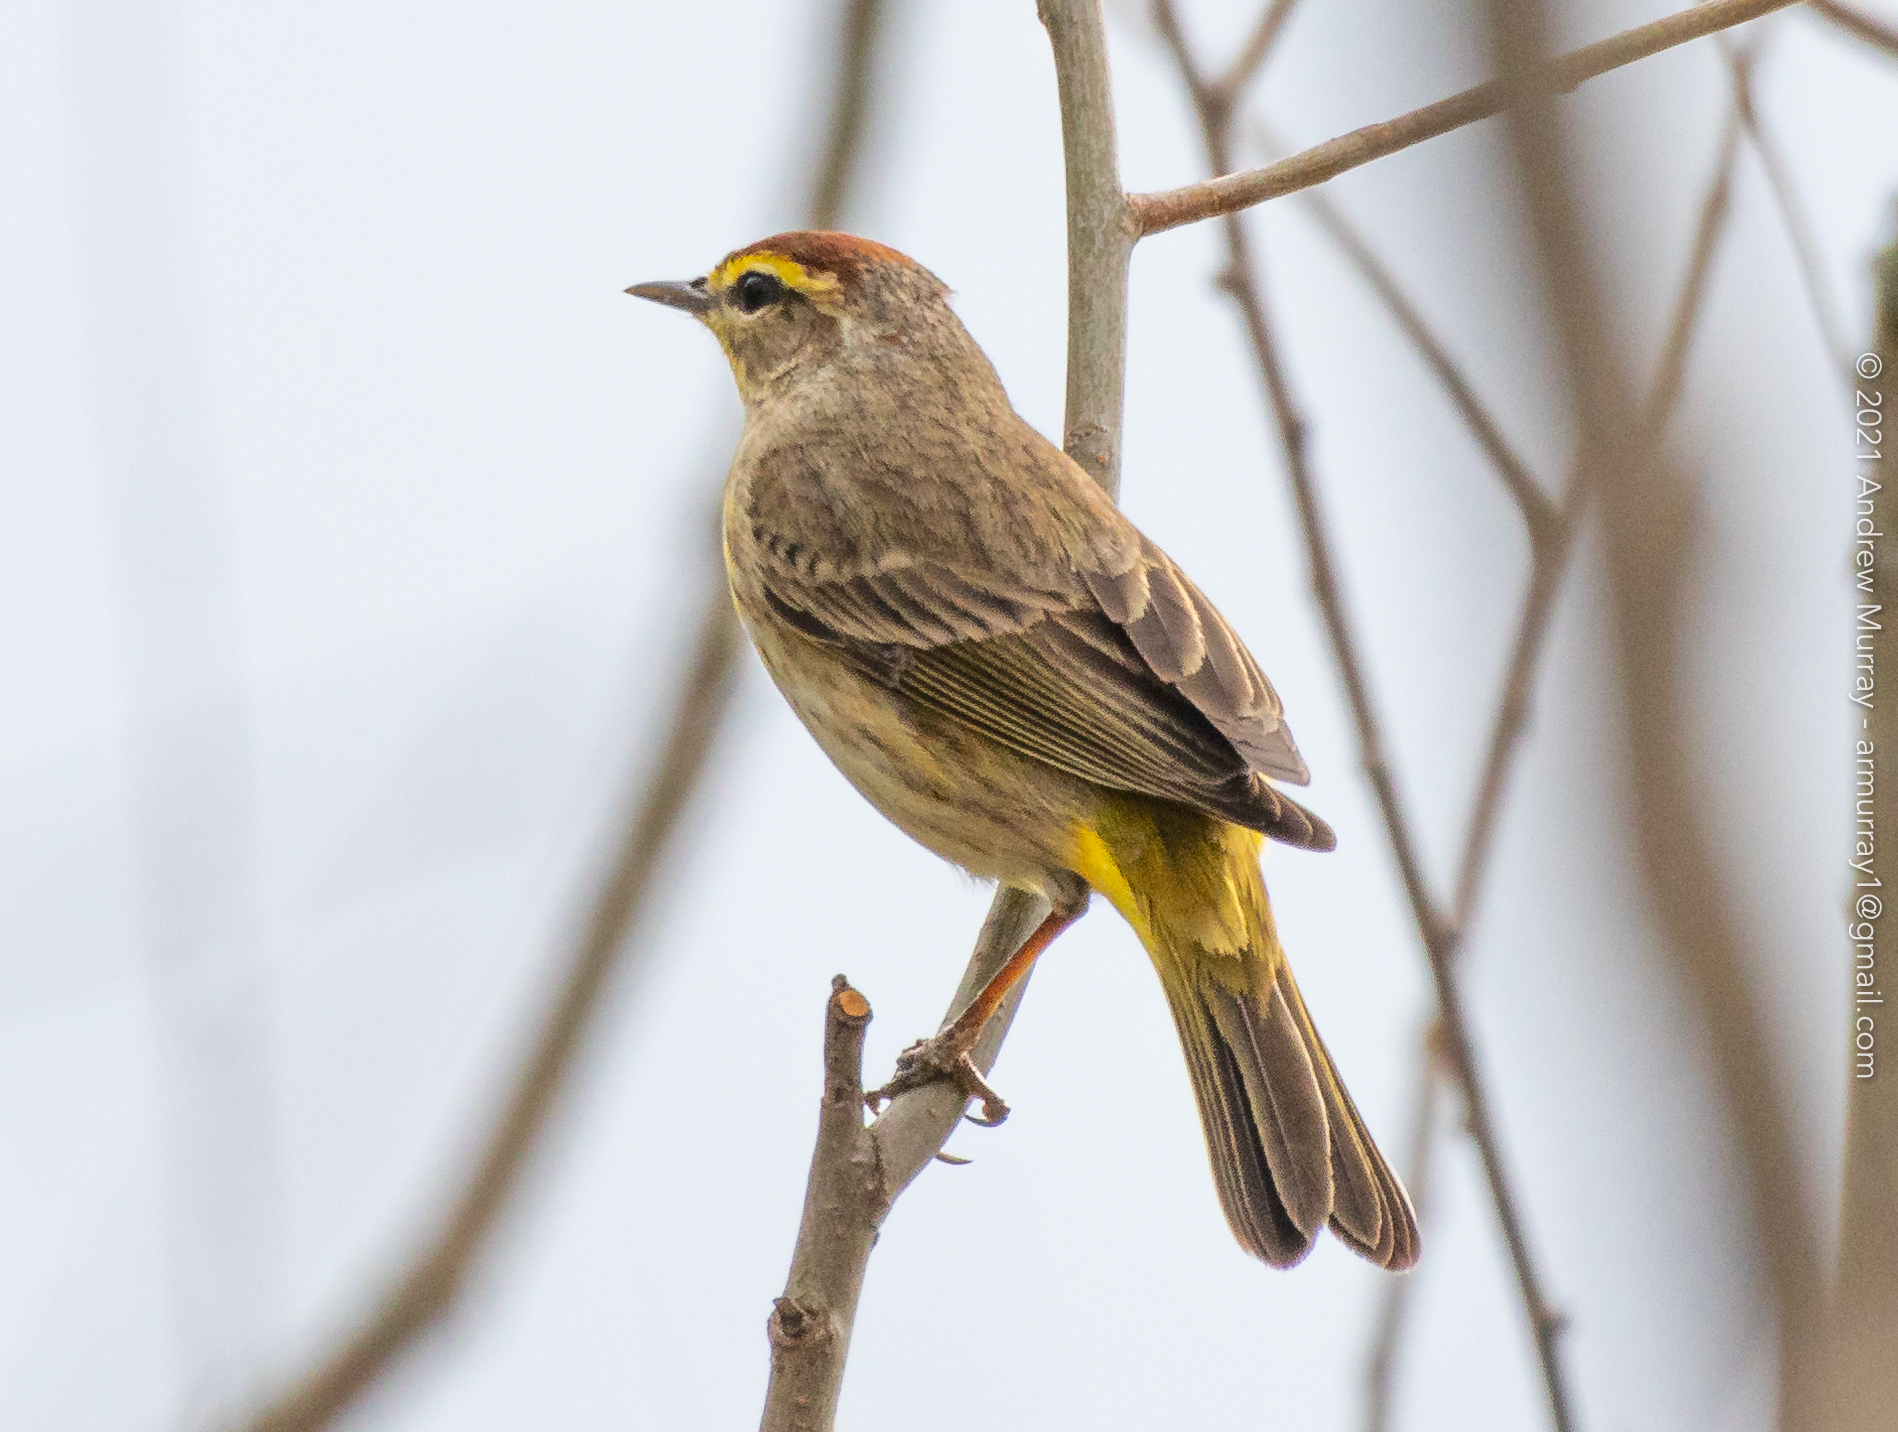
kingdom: Animalia
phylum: Chordata
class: Aves
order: Passeriformes
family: Parulidae
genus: Setophaga
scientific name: Setophaga palmarum
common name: Palm warbler
